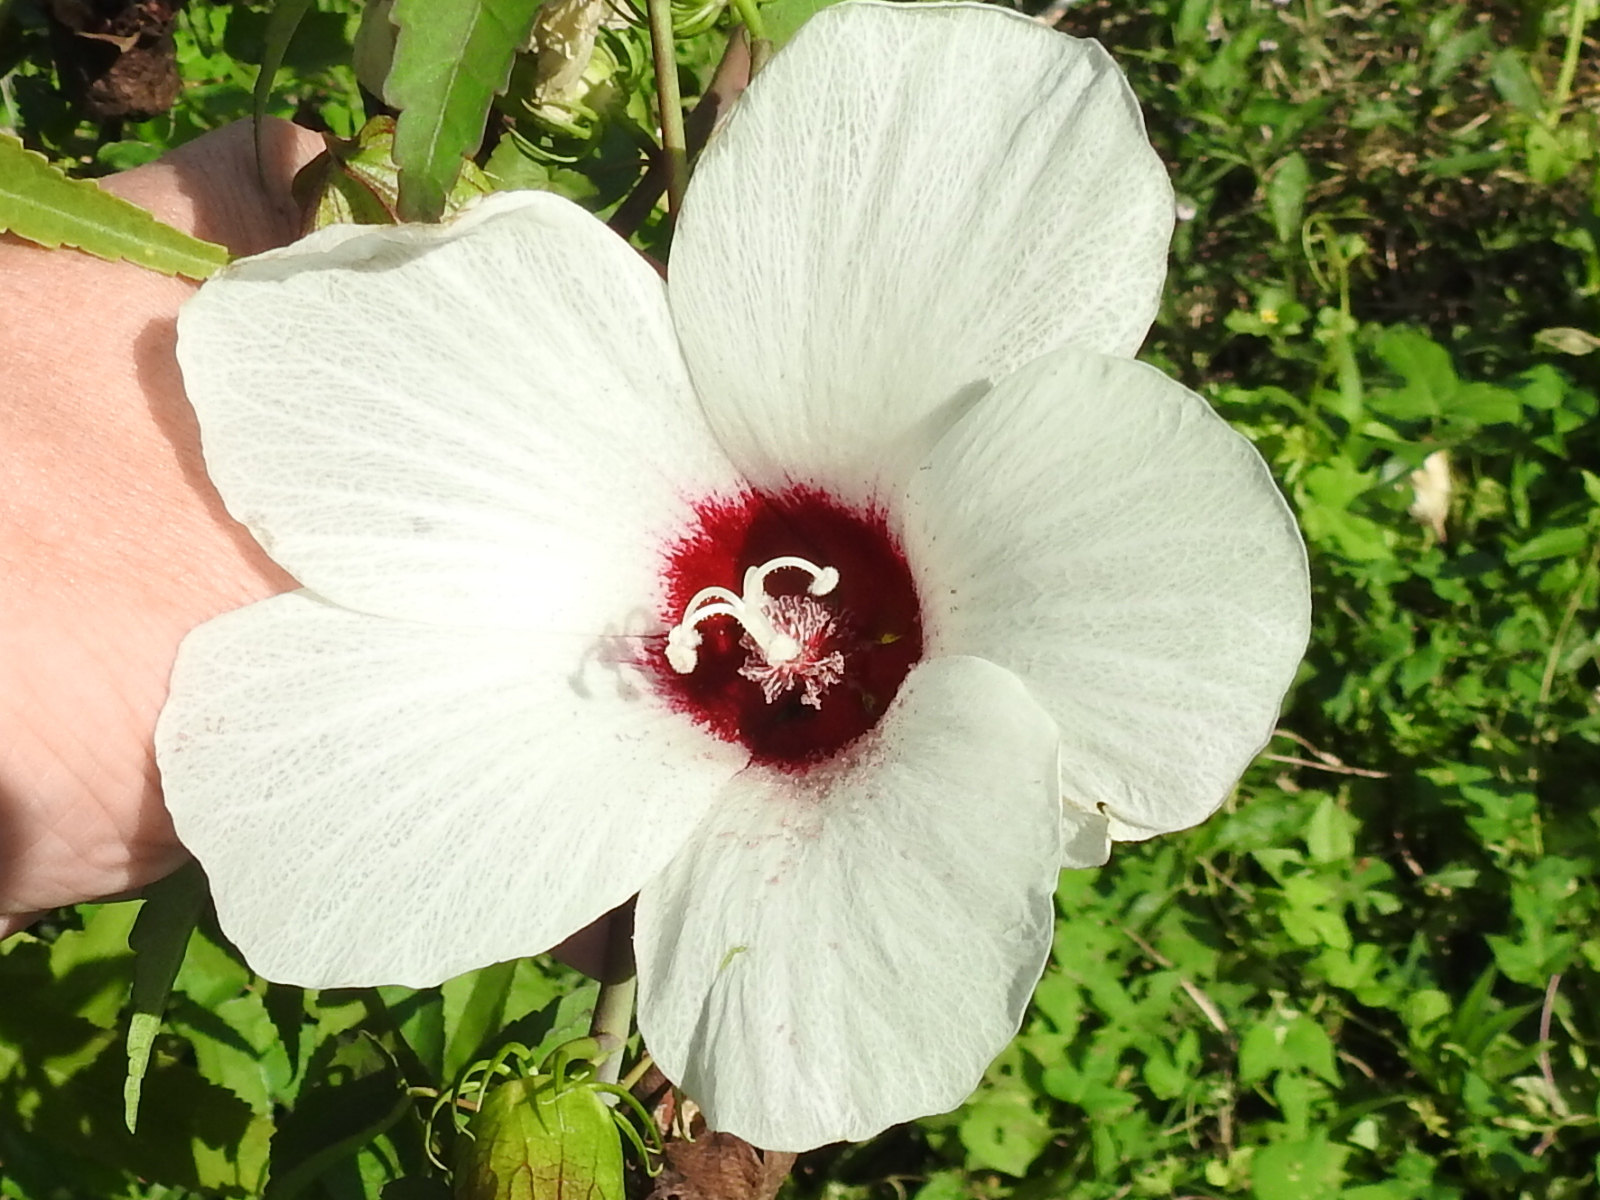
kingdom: Plantae
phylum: Tracheophyta
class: Magnoliopsida
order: Malvales
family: Malvaceae
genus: Hibiscus
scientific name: Hibiscus laevis
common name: Scarlet rose-mallow
